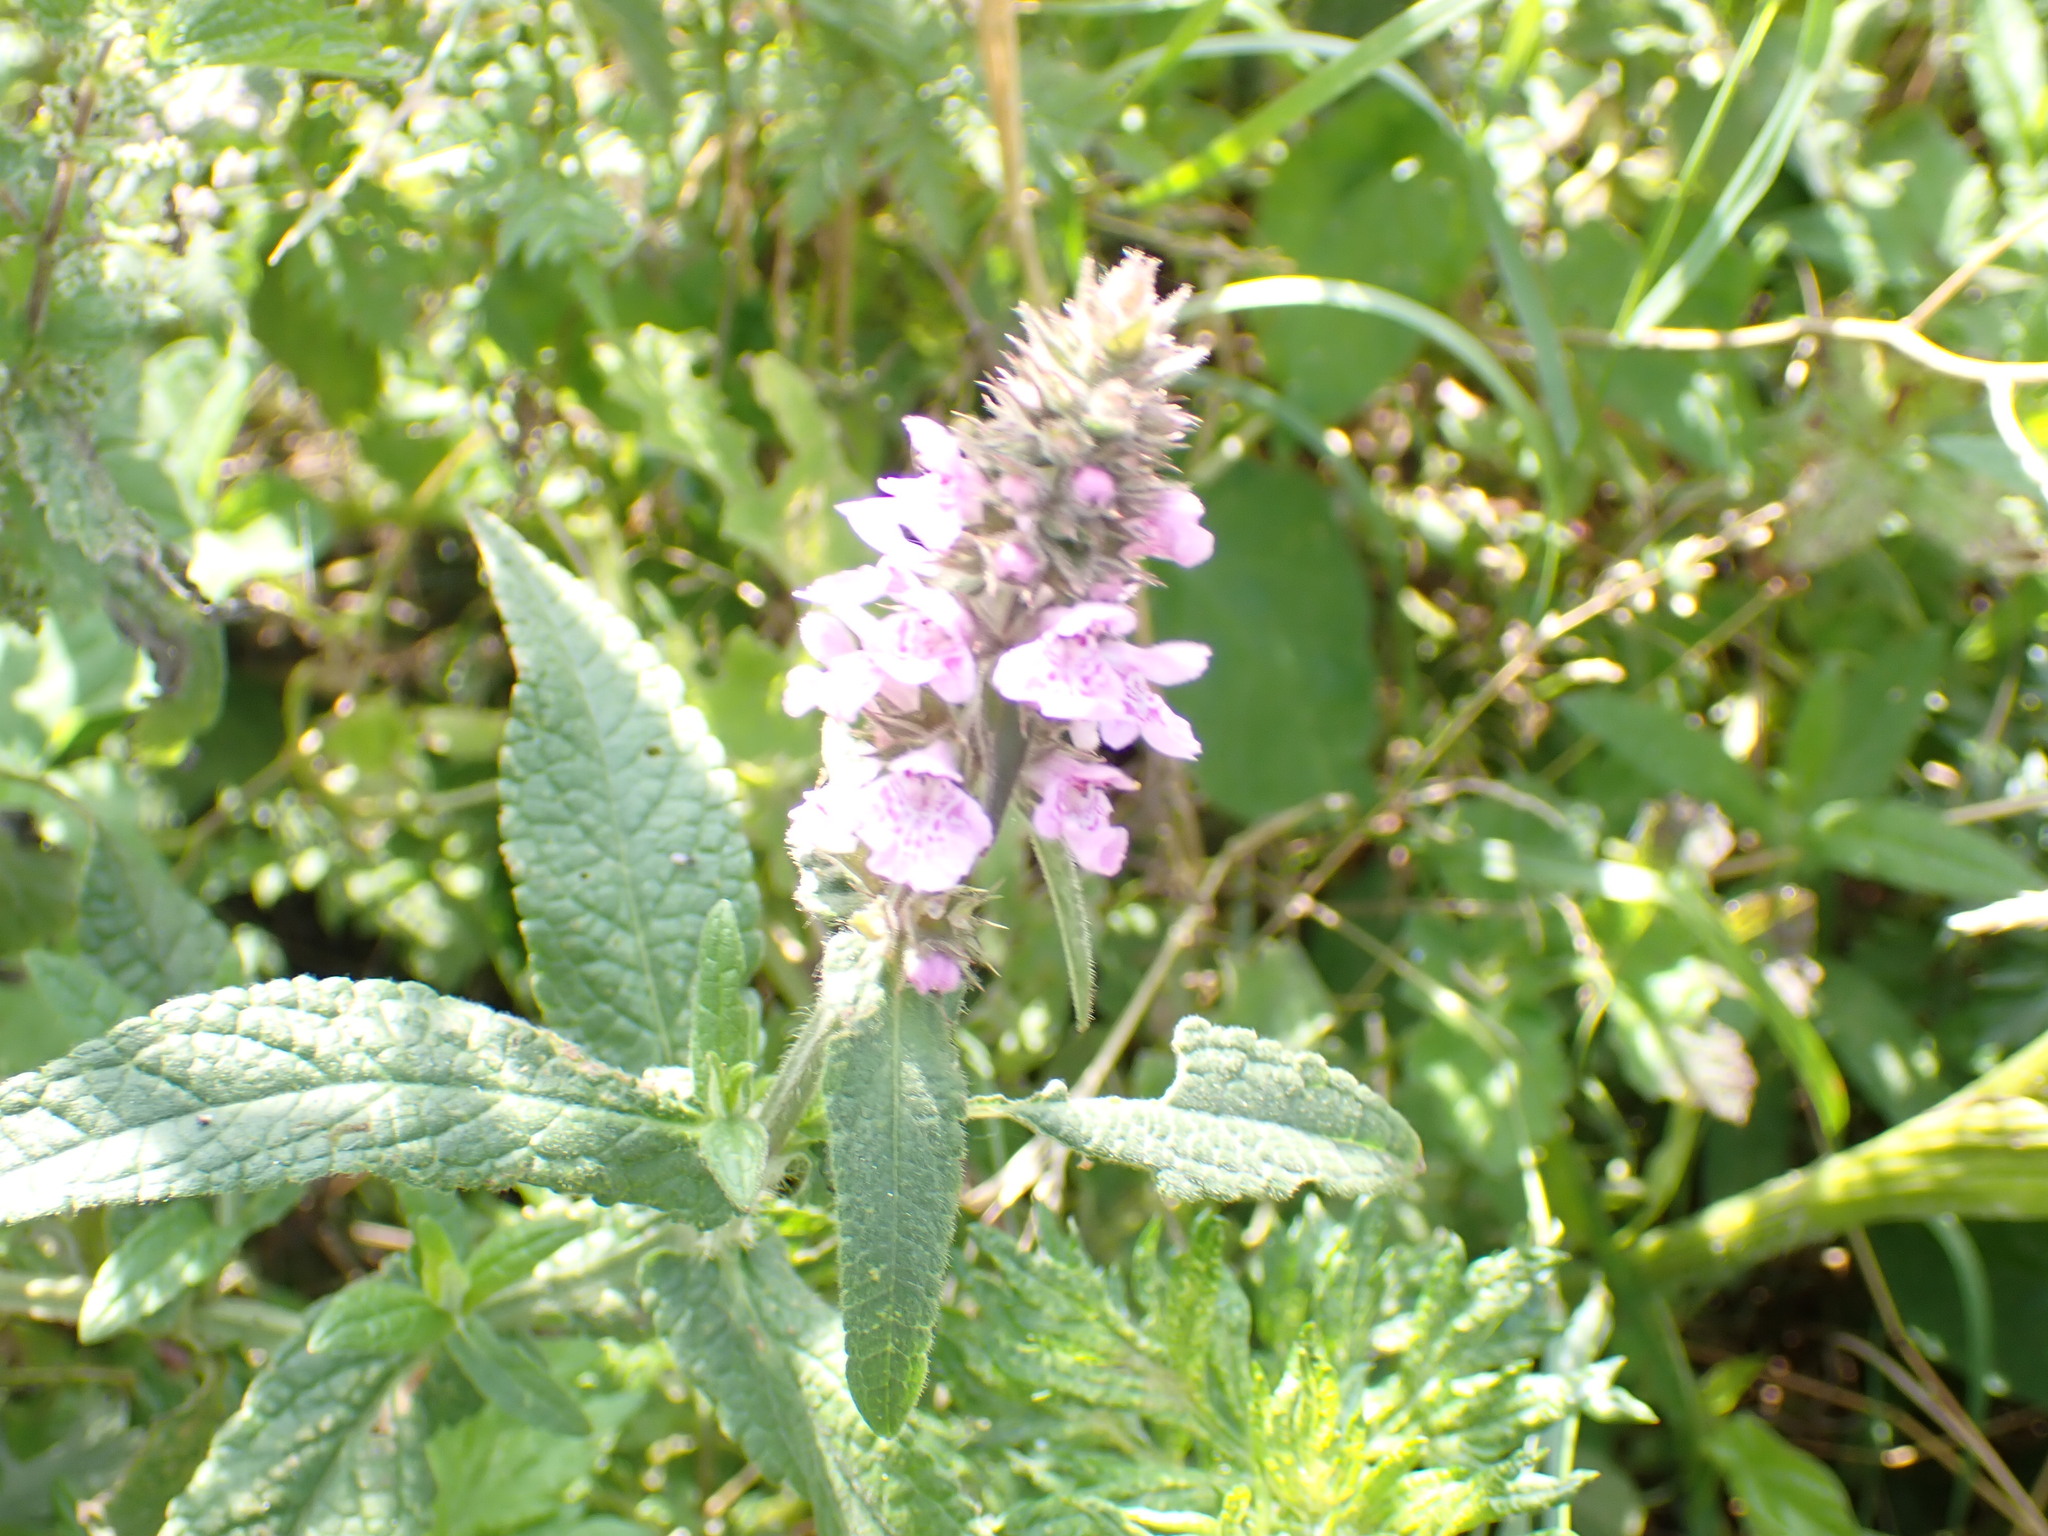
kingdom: Plantae
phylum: Tracheophyta
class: Magnoliopsida
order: Lamiales
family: Lamiaceae
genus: Stachys
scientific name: Stachys palustris
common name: Marsh woundwort
